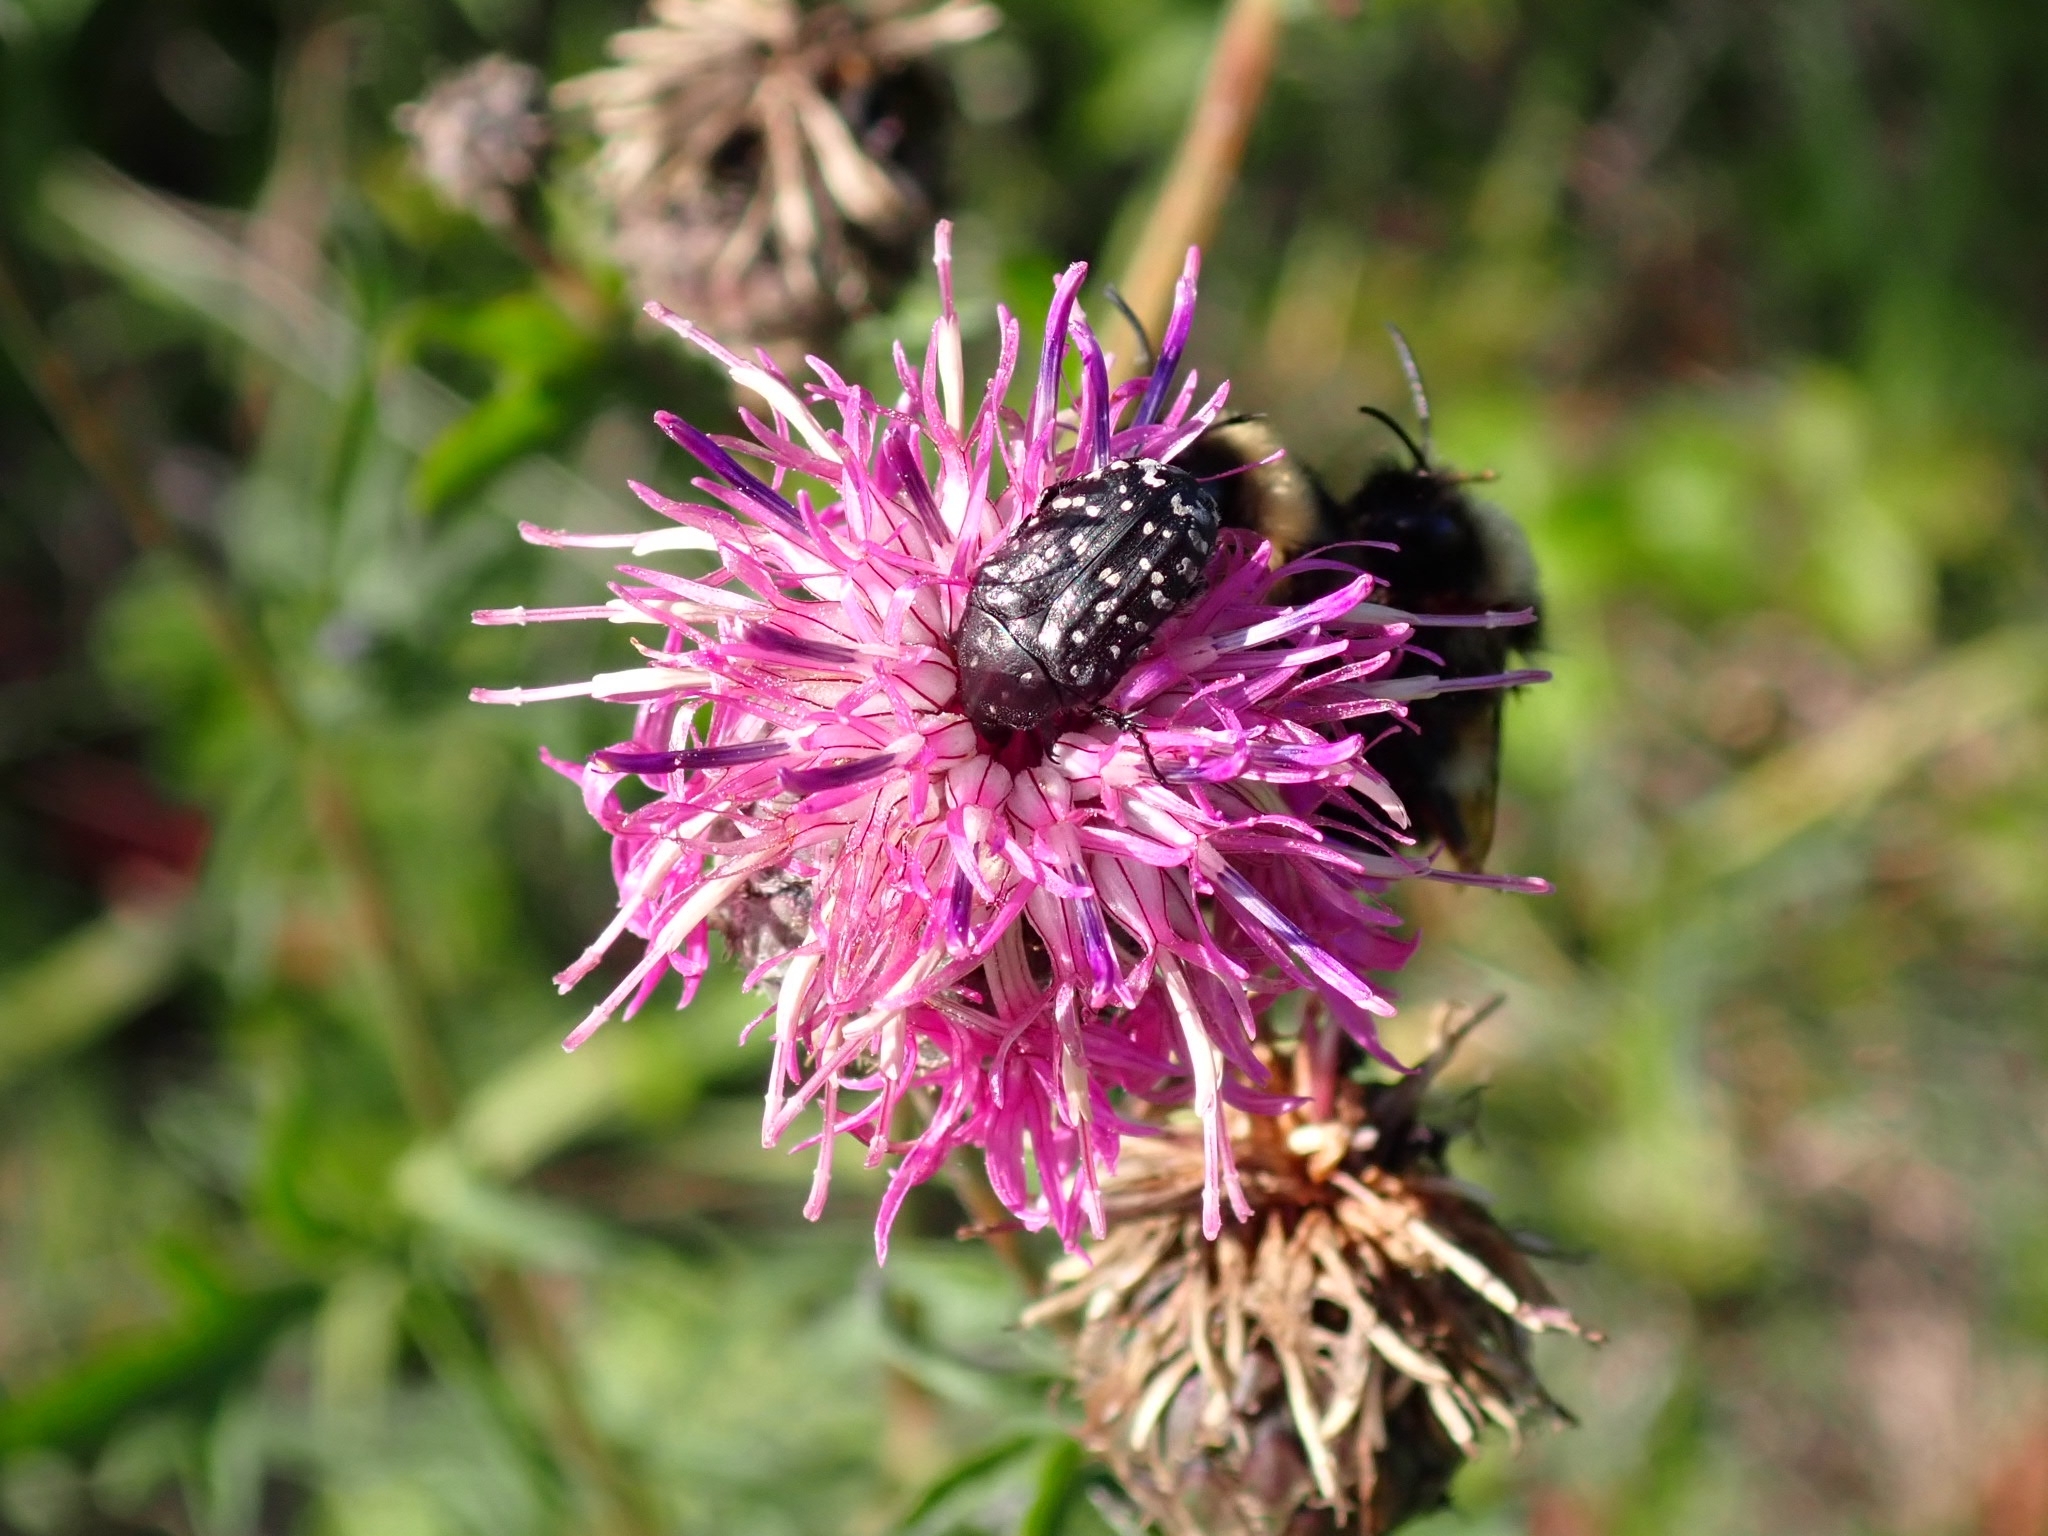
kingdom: Animalia
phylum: Arthropoda
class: Insecta
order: Coleoptera
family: Scarabaeidae
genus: Oxythyrea
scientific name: Oxythyrea funesta
